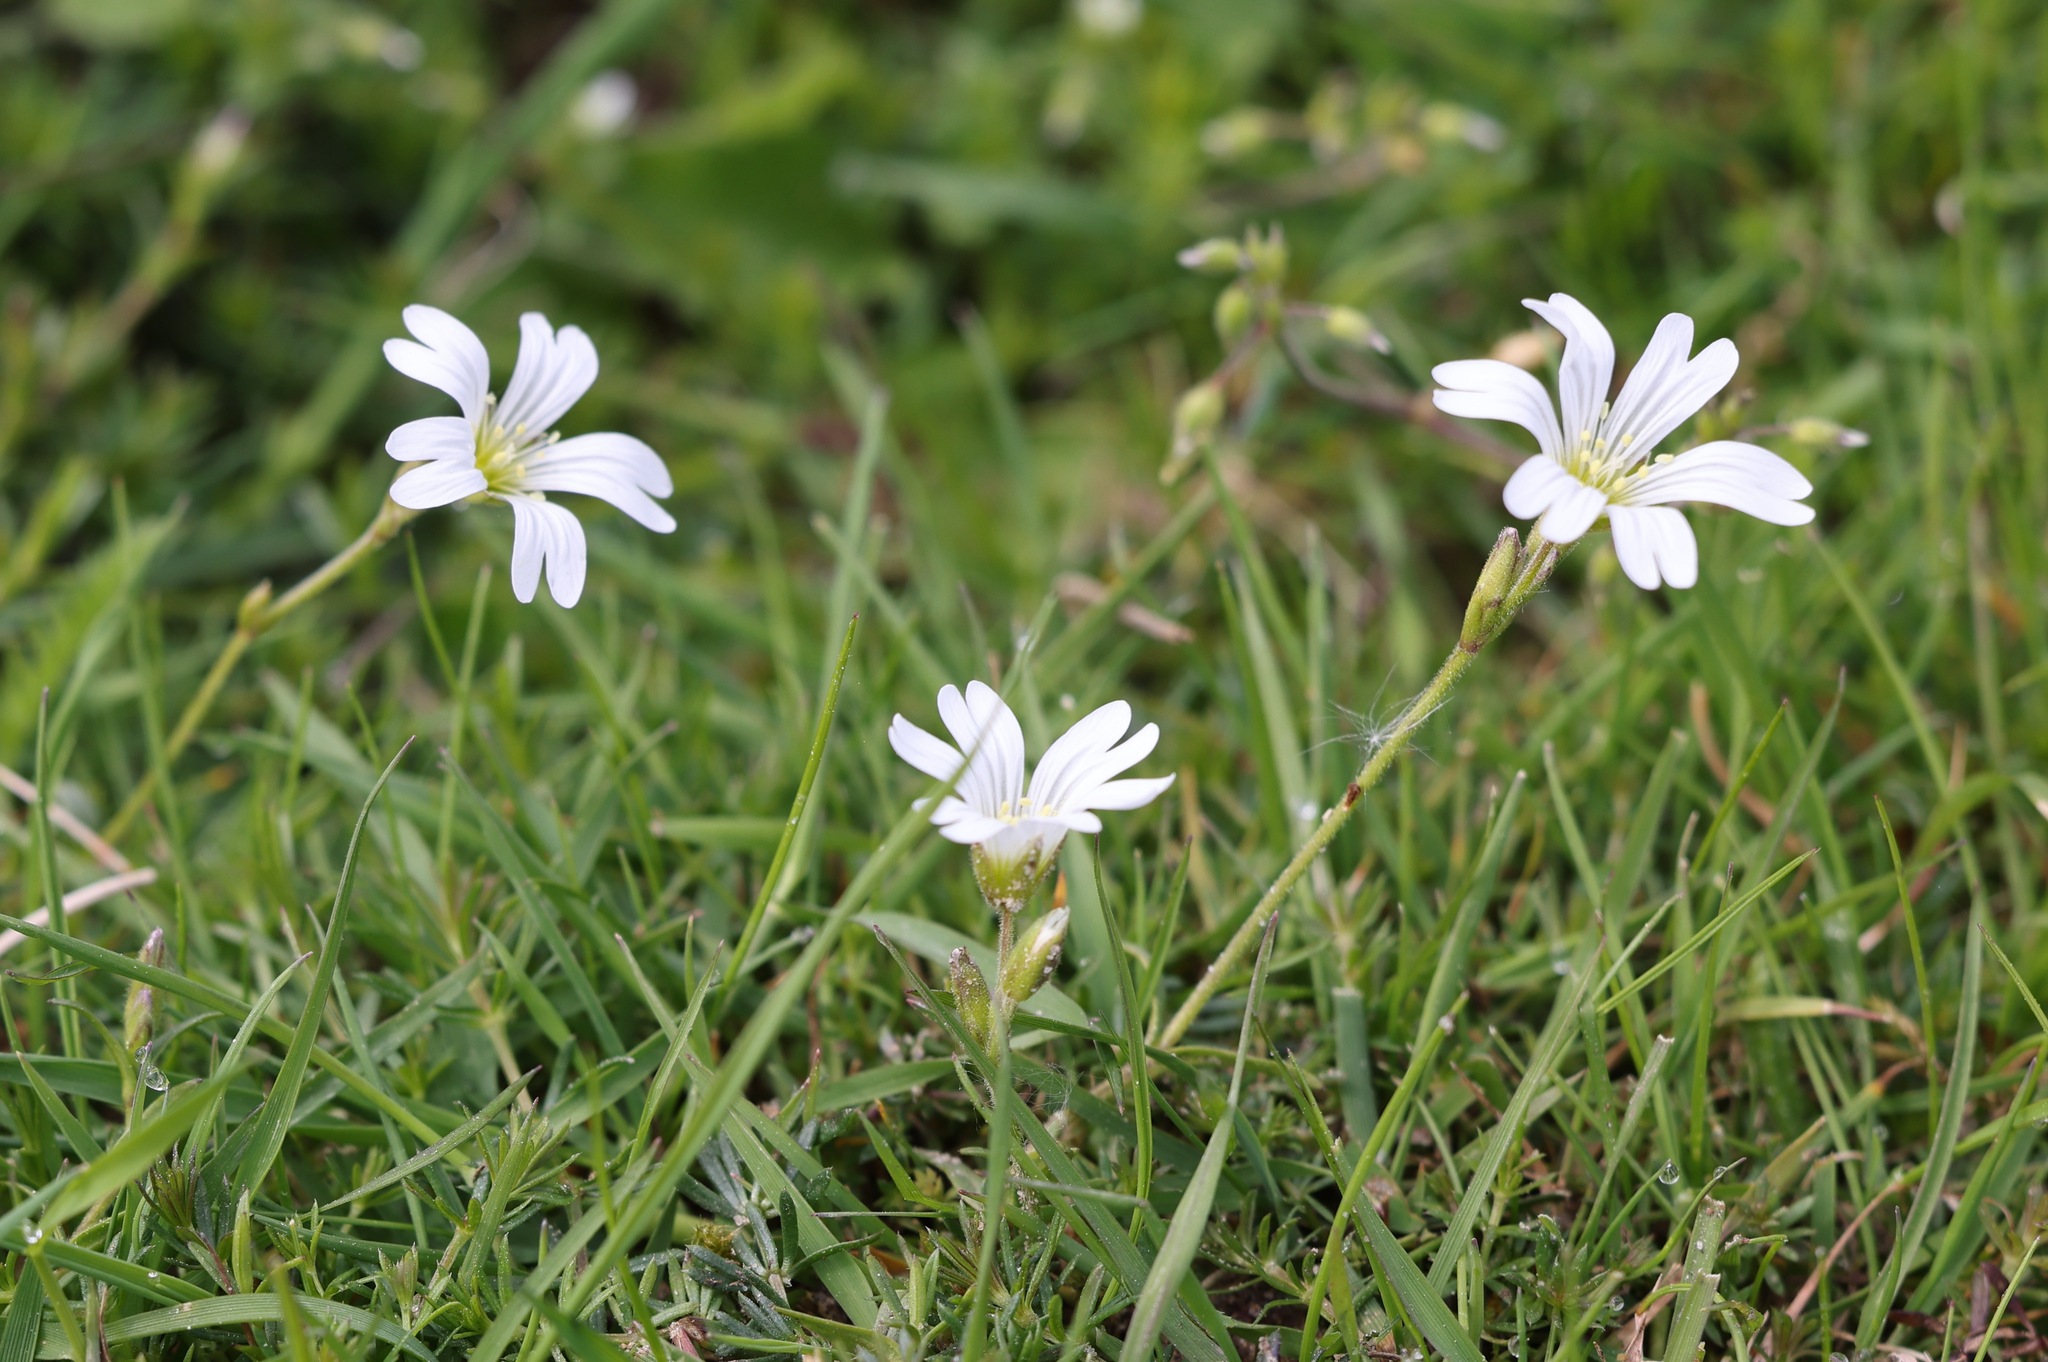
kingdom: Plantae
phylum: Tracheophyta
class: Magnoliopsida
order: Caryophyllales
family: Caryophyllaceae
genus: Cerastium
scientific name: Cerastium arvense
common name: Field mouse-ear
